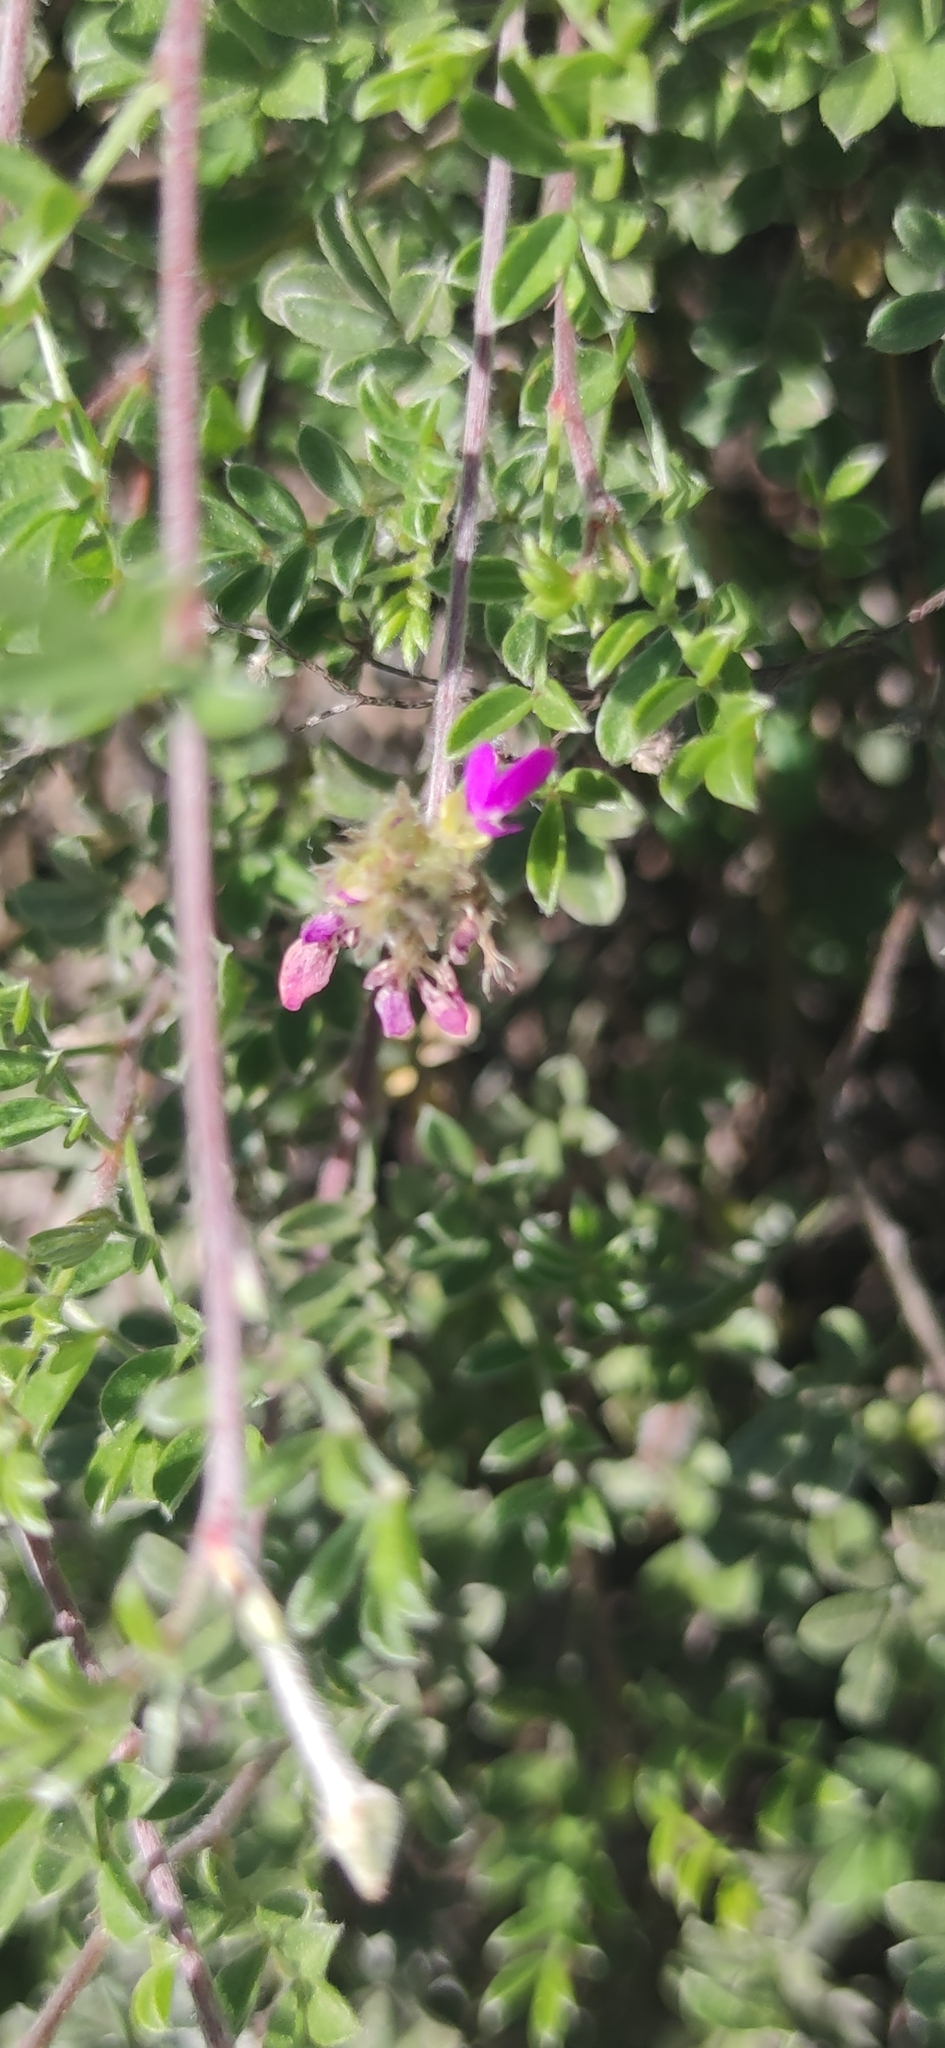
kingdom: Plantae
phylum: Tracheophyta
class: Magnoliopsida
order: Fabales
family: Fabaceae
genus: Dalea
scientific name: Dalea greggii
